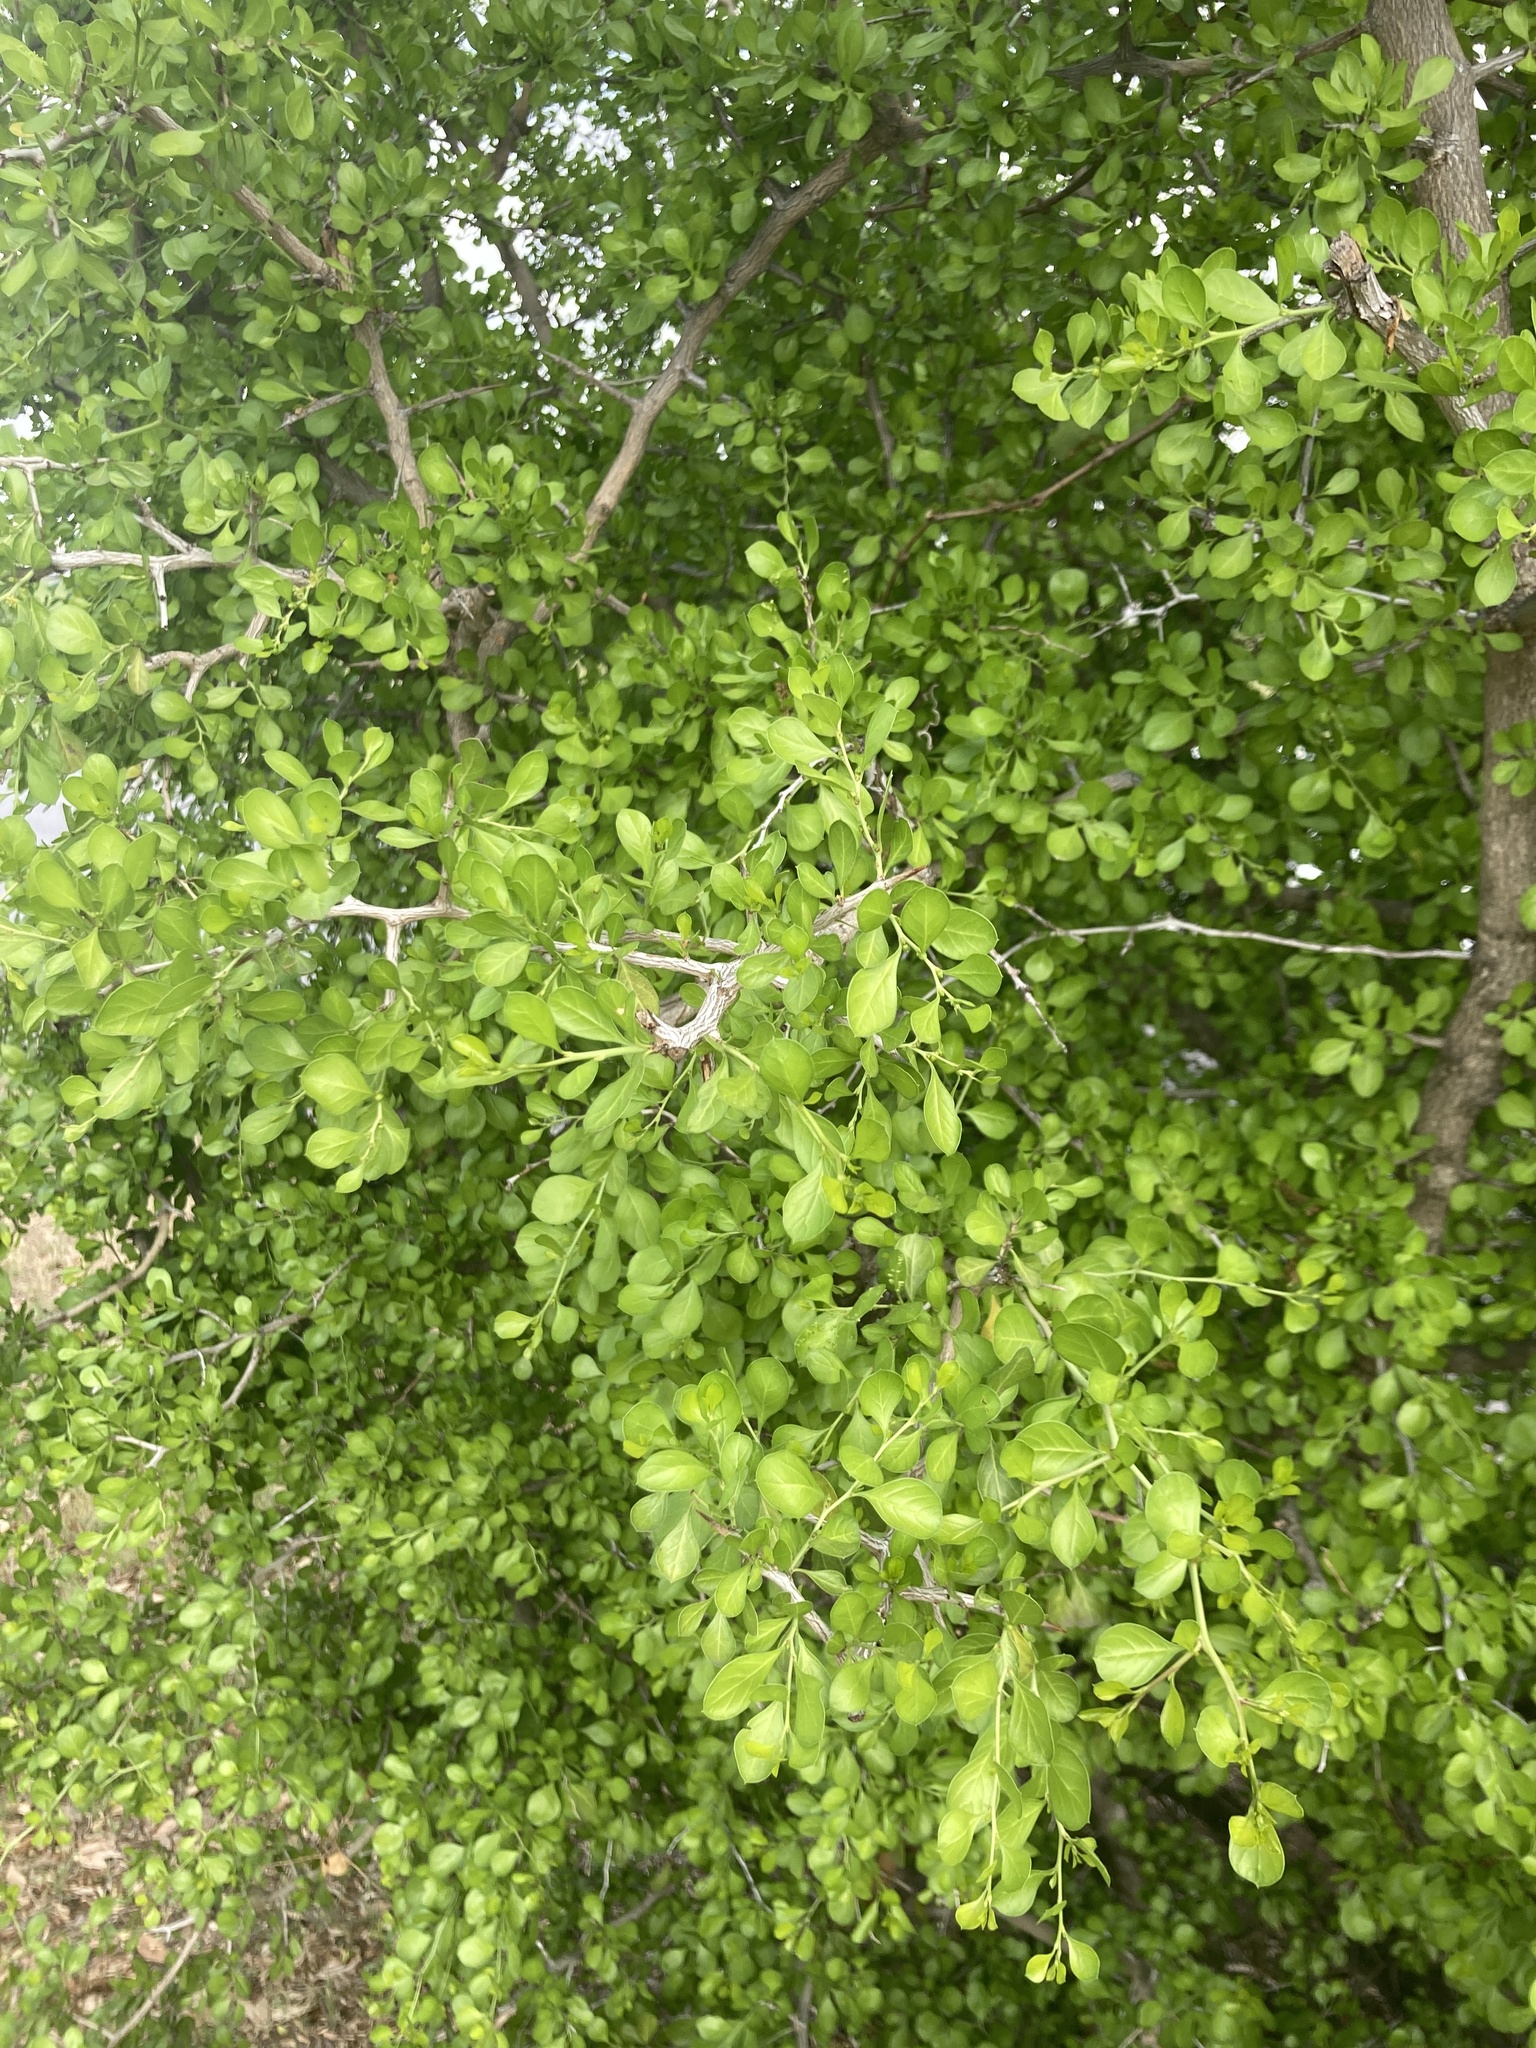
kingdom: Plantae
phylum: Tracheophyta
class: Magnoliopsida
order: Rosales
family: Rhamnaceae
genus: Condalia
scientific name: Condalia hookeri
